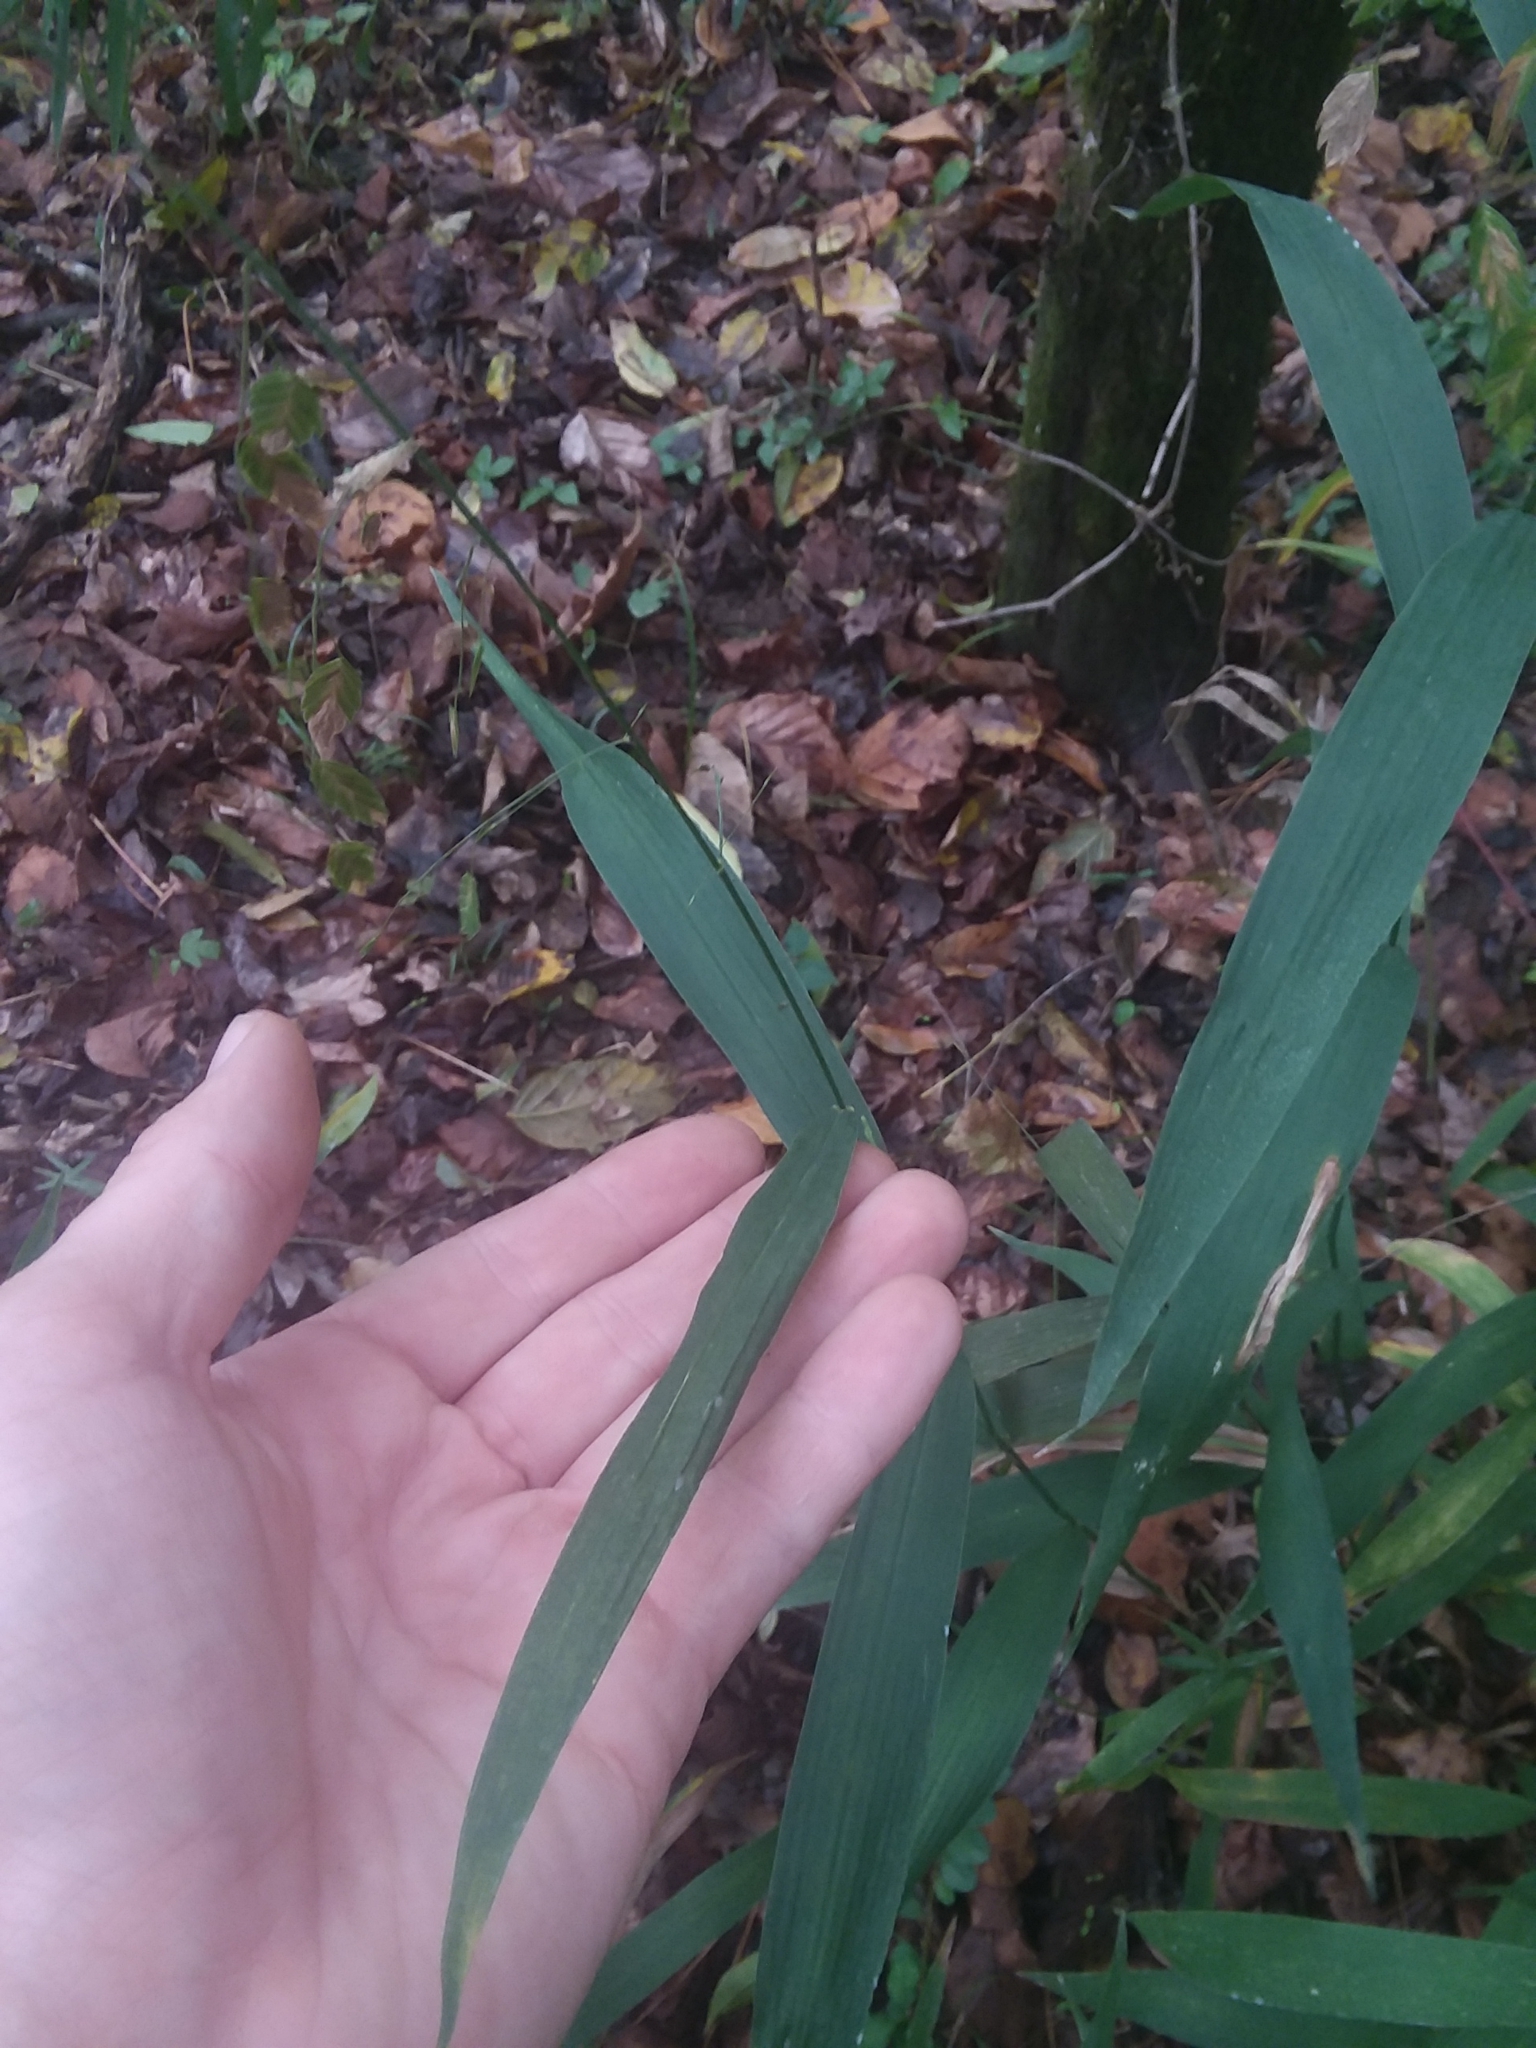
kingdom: Plantae
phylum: Tracheophyta
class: Liliopsida
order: Poales
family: Poaceae
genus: Chasmanthium
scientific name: Chasmanthium latifolium
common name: Broad-leaved chasmanthium
